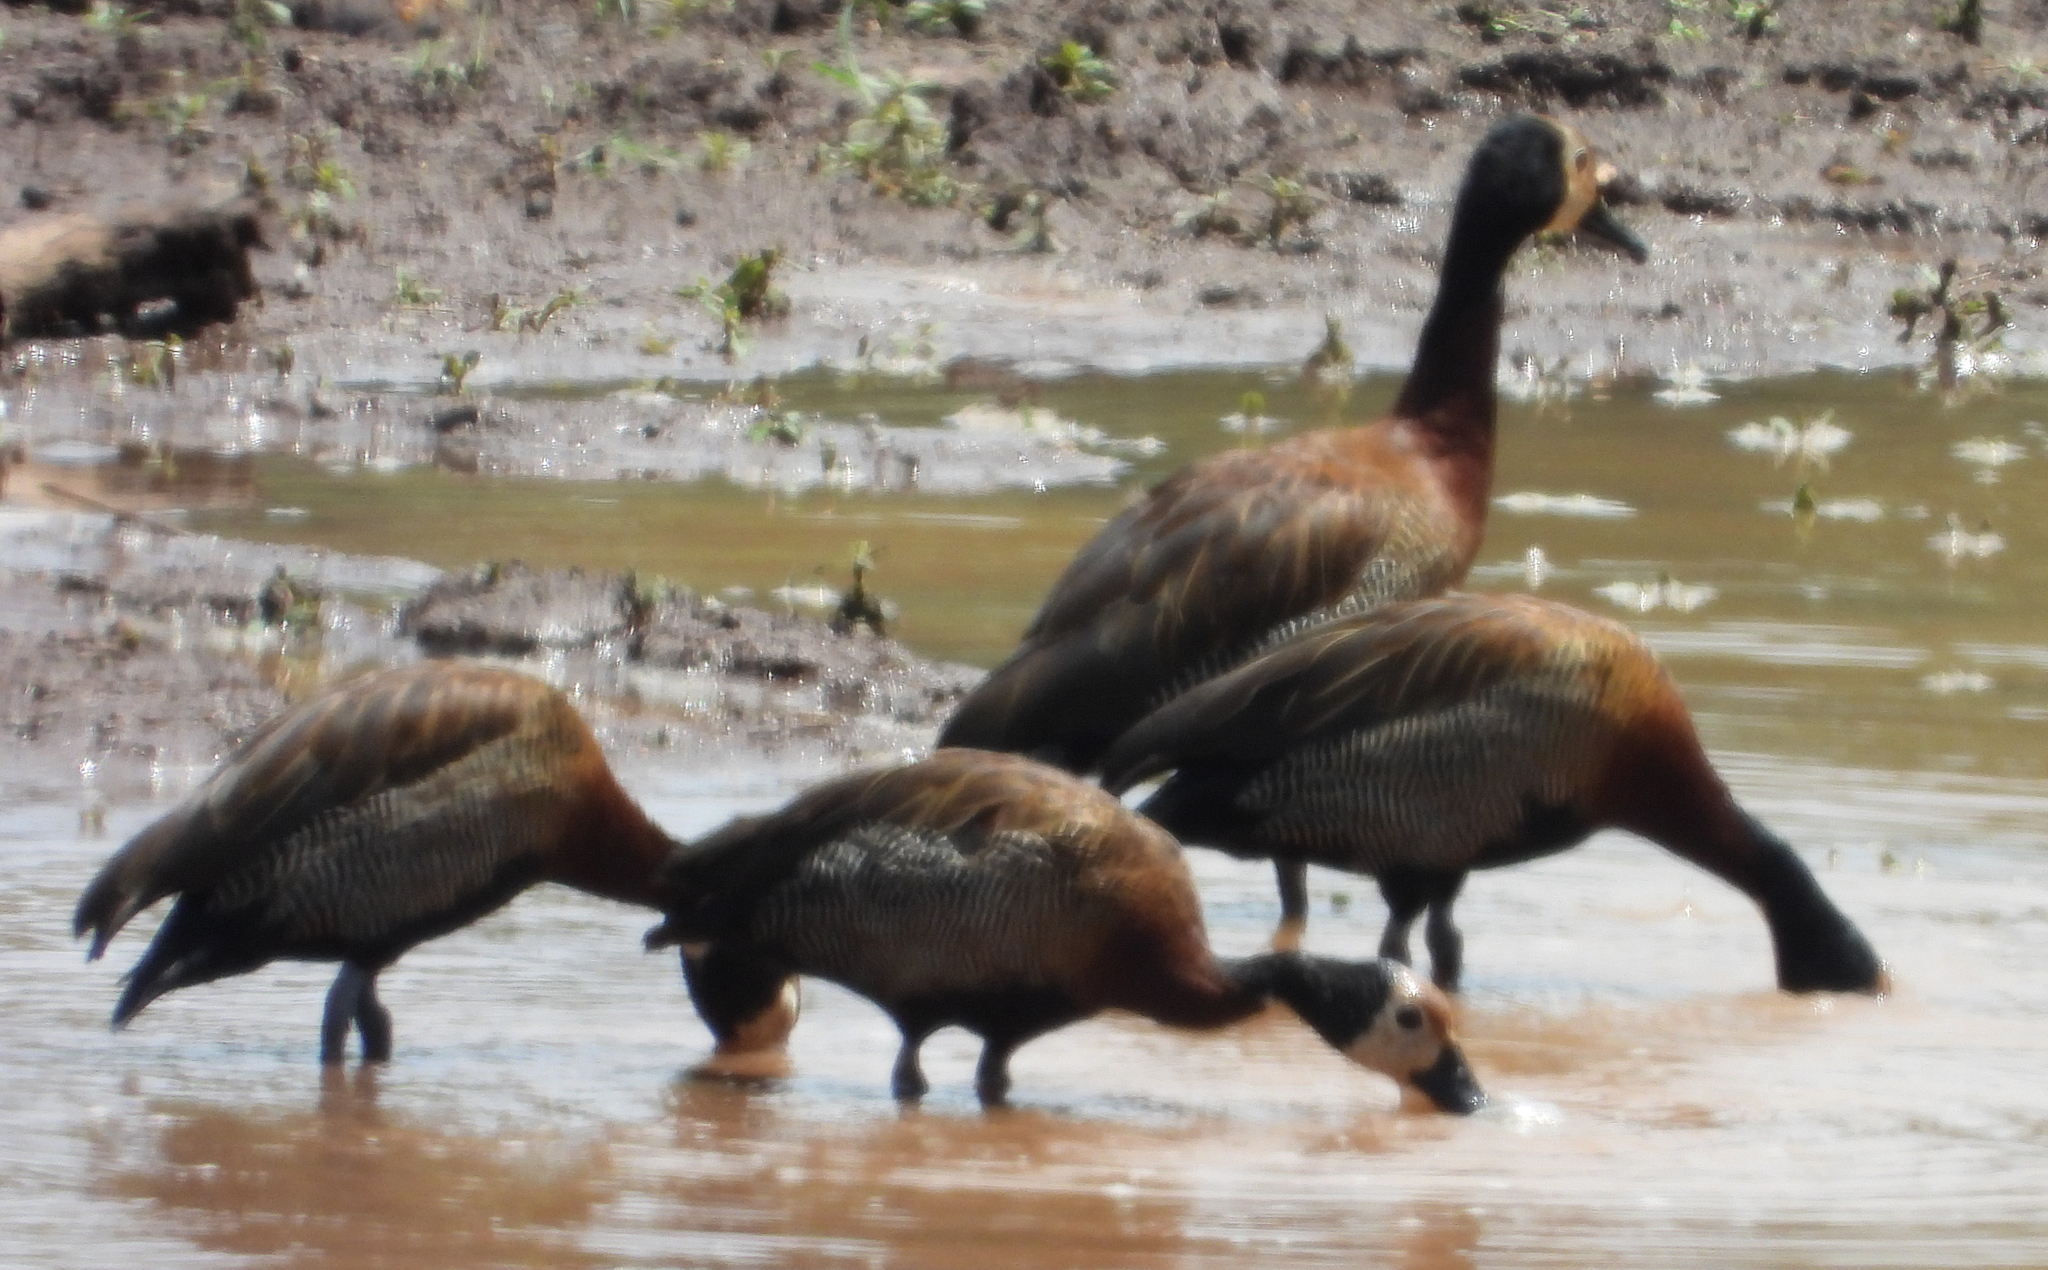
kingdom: Animalia
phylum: Chordata
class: Aves
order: Anseriformes
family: Anatidae
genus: Dendrocygna
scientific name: Dendrocygna viduata
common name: White-faced whistling duck
